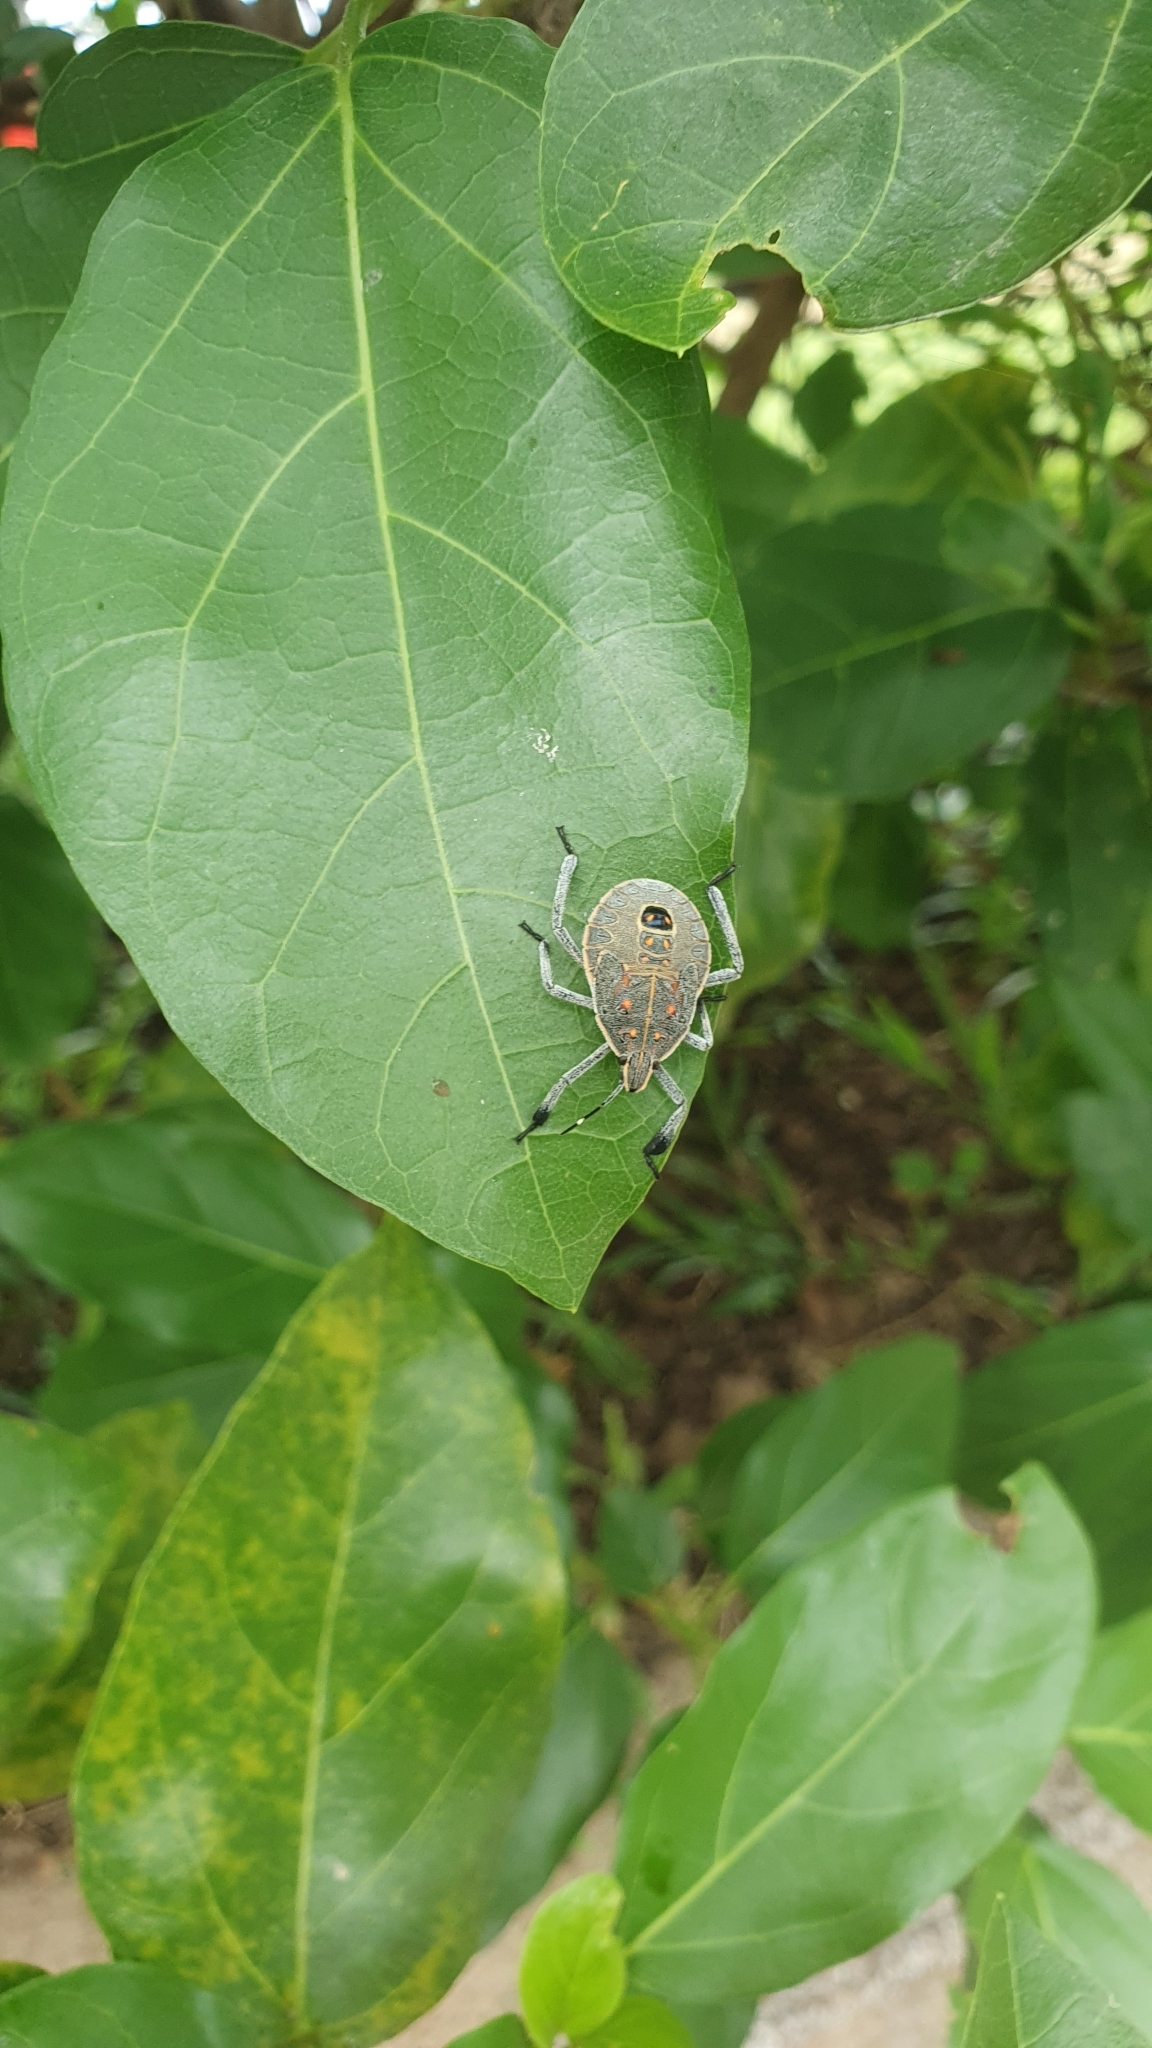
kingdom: Animalia
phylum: Arthropoda
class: Insecta
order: Hemiptera
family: Pentatomidae
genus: Erthesina
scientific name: Erthesina fullo
